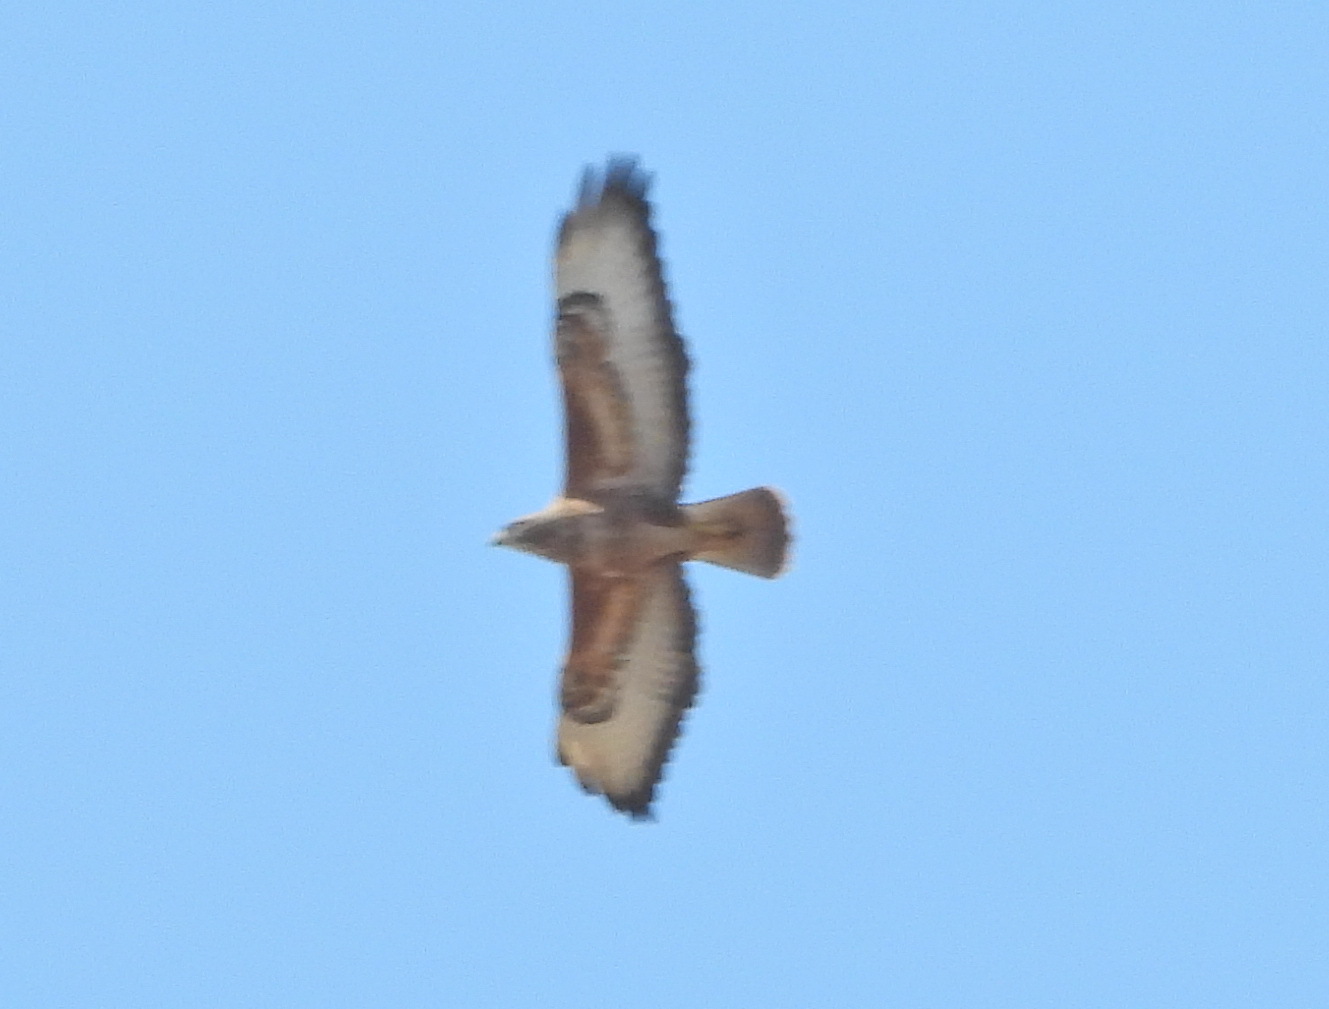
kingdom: Animalia
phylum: Chordata
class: Aves
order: Accipitriformes
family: Accipitridae
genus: Buteo
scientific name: Buteo buteo
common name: Common buzzard
